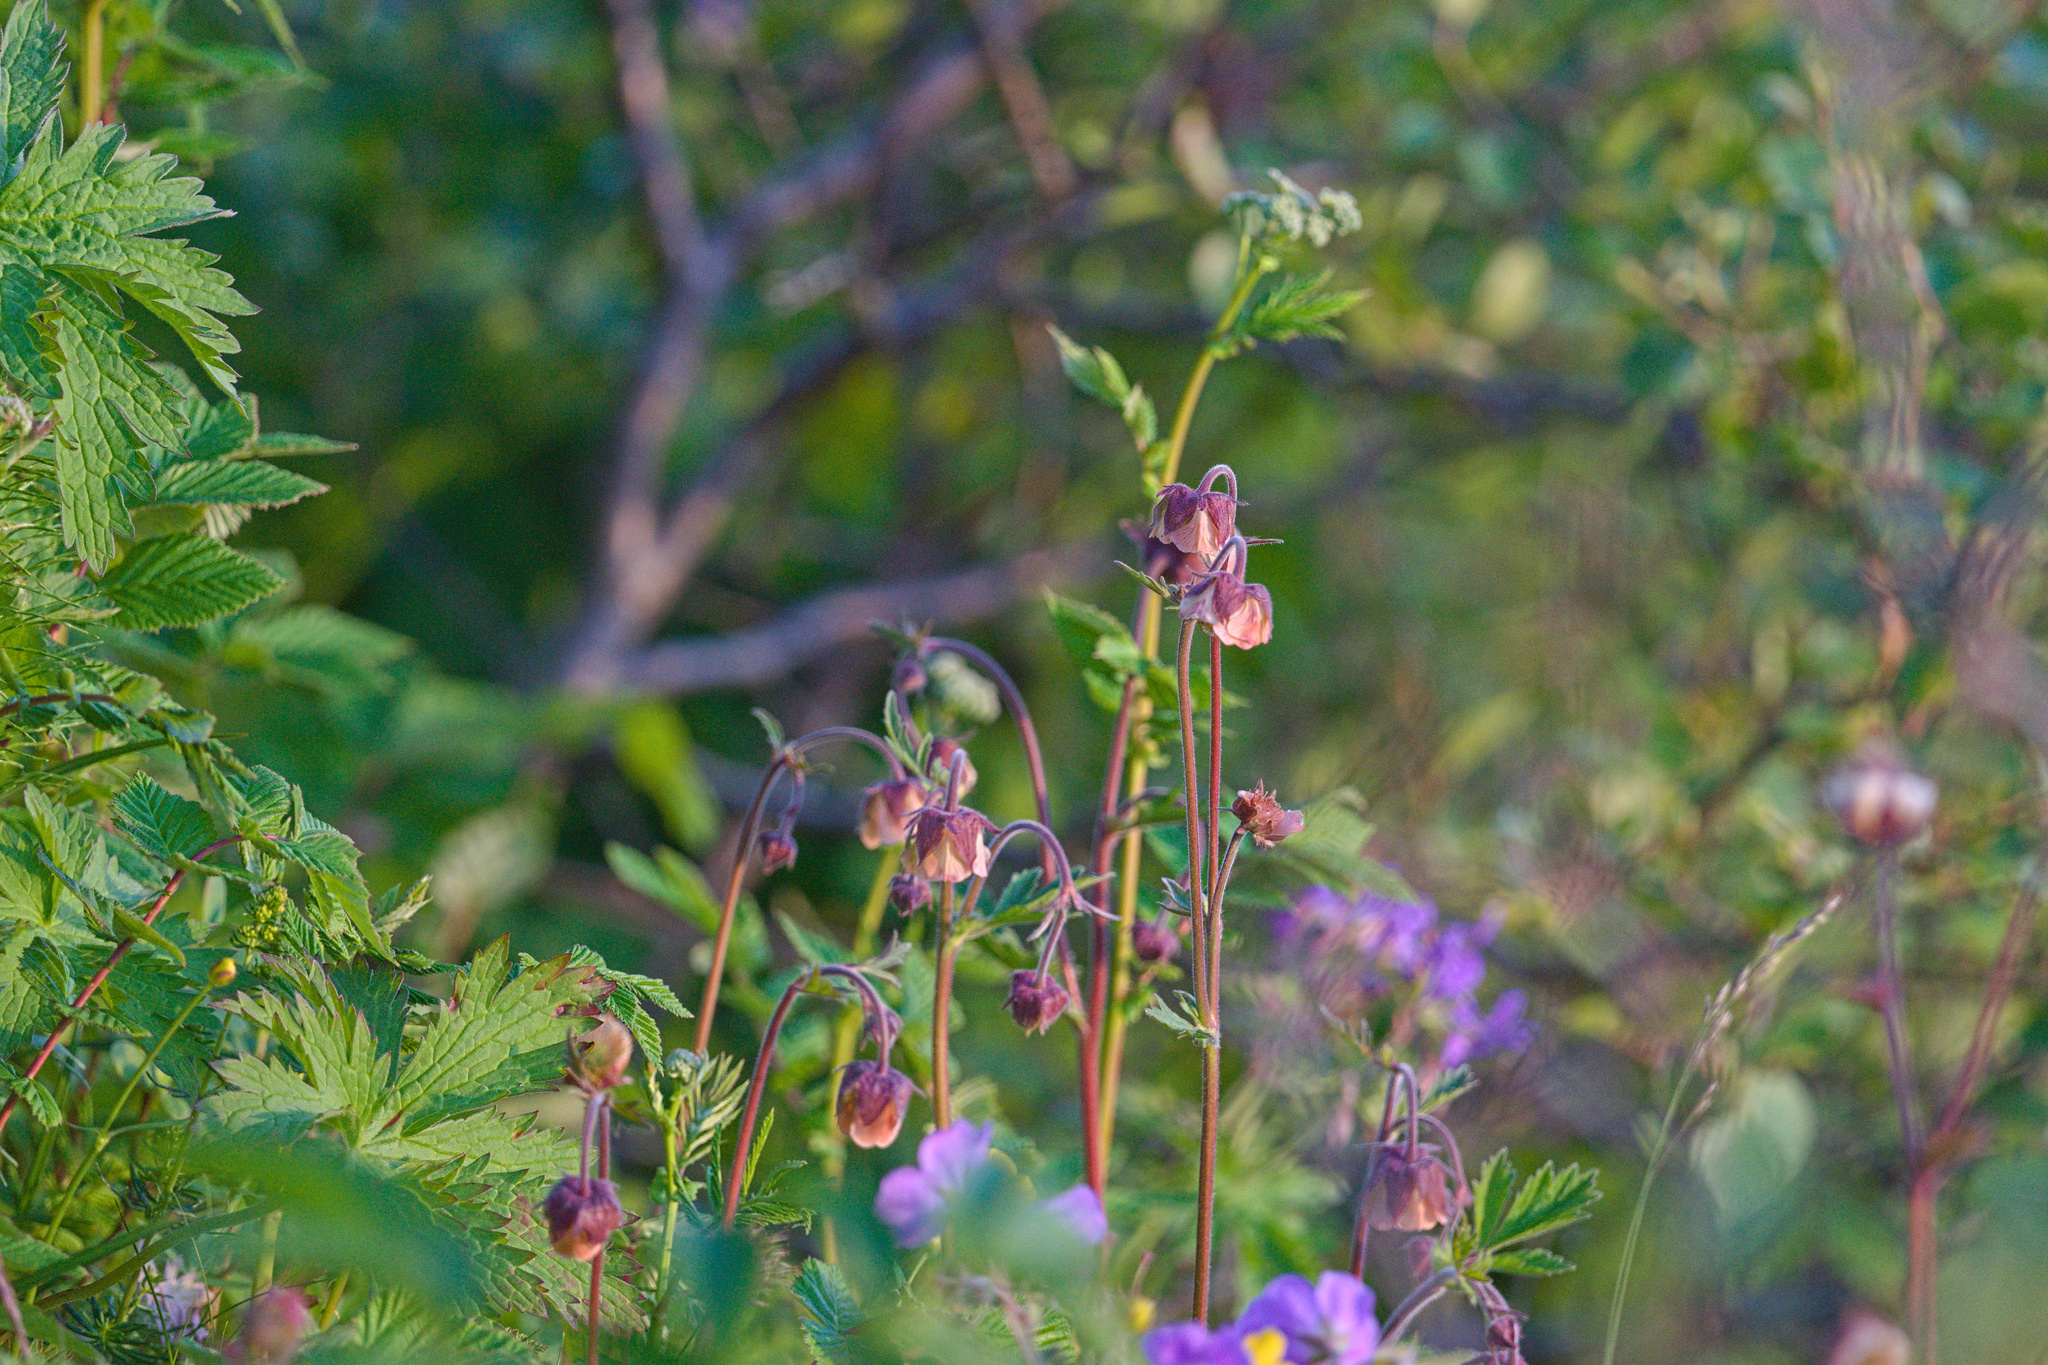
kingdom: Plantae
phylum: Tracheophyta
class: Magnoliopsida
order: Rosales
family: Rosaceae
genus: Geum
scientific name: Geum rivale
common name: Water avens
